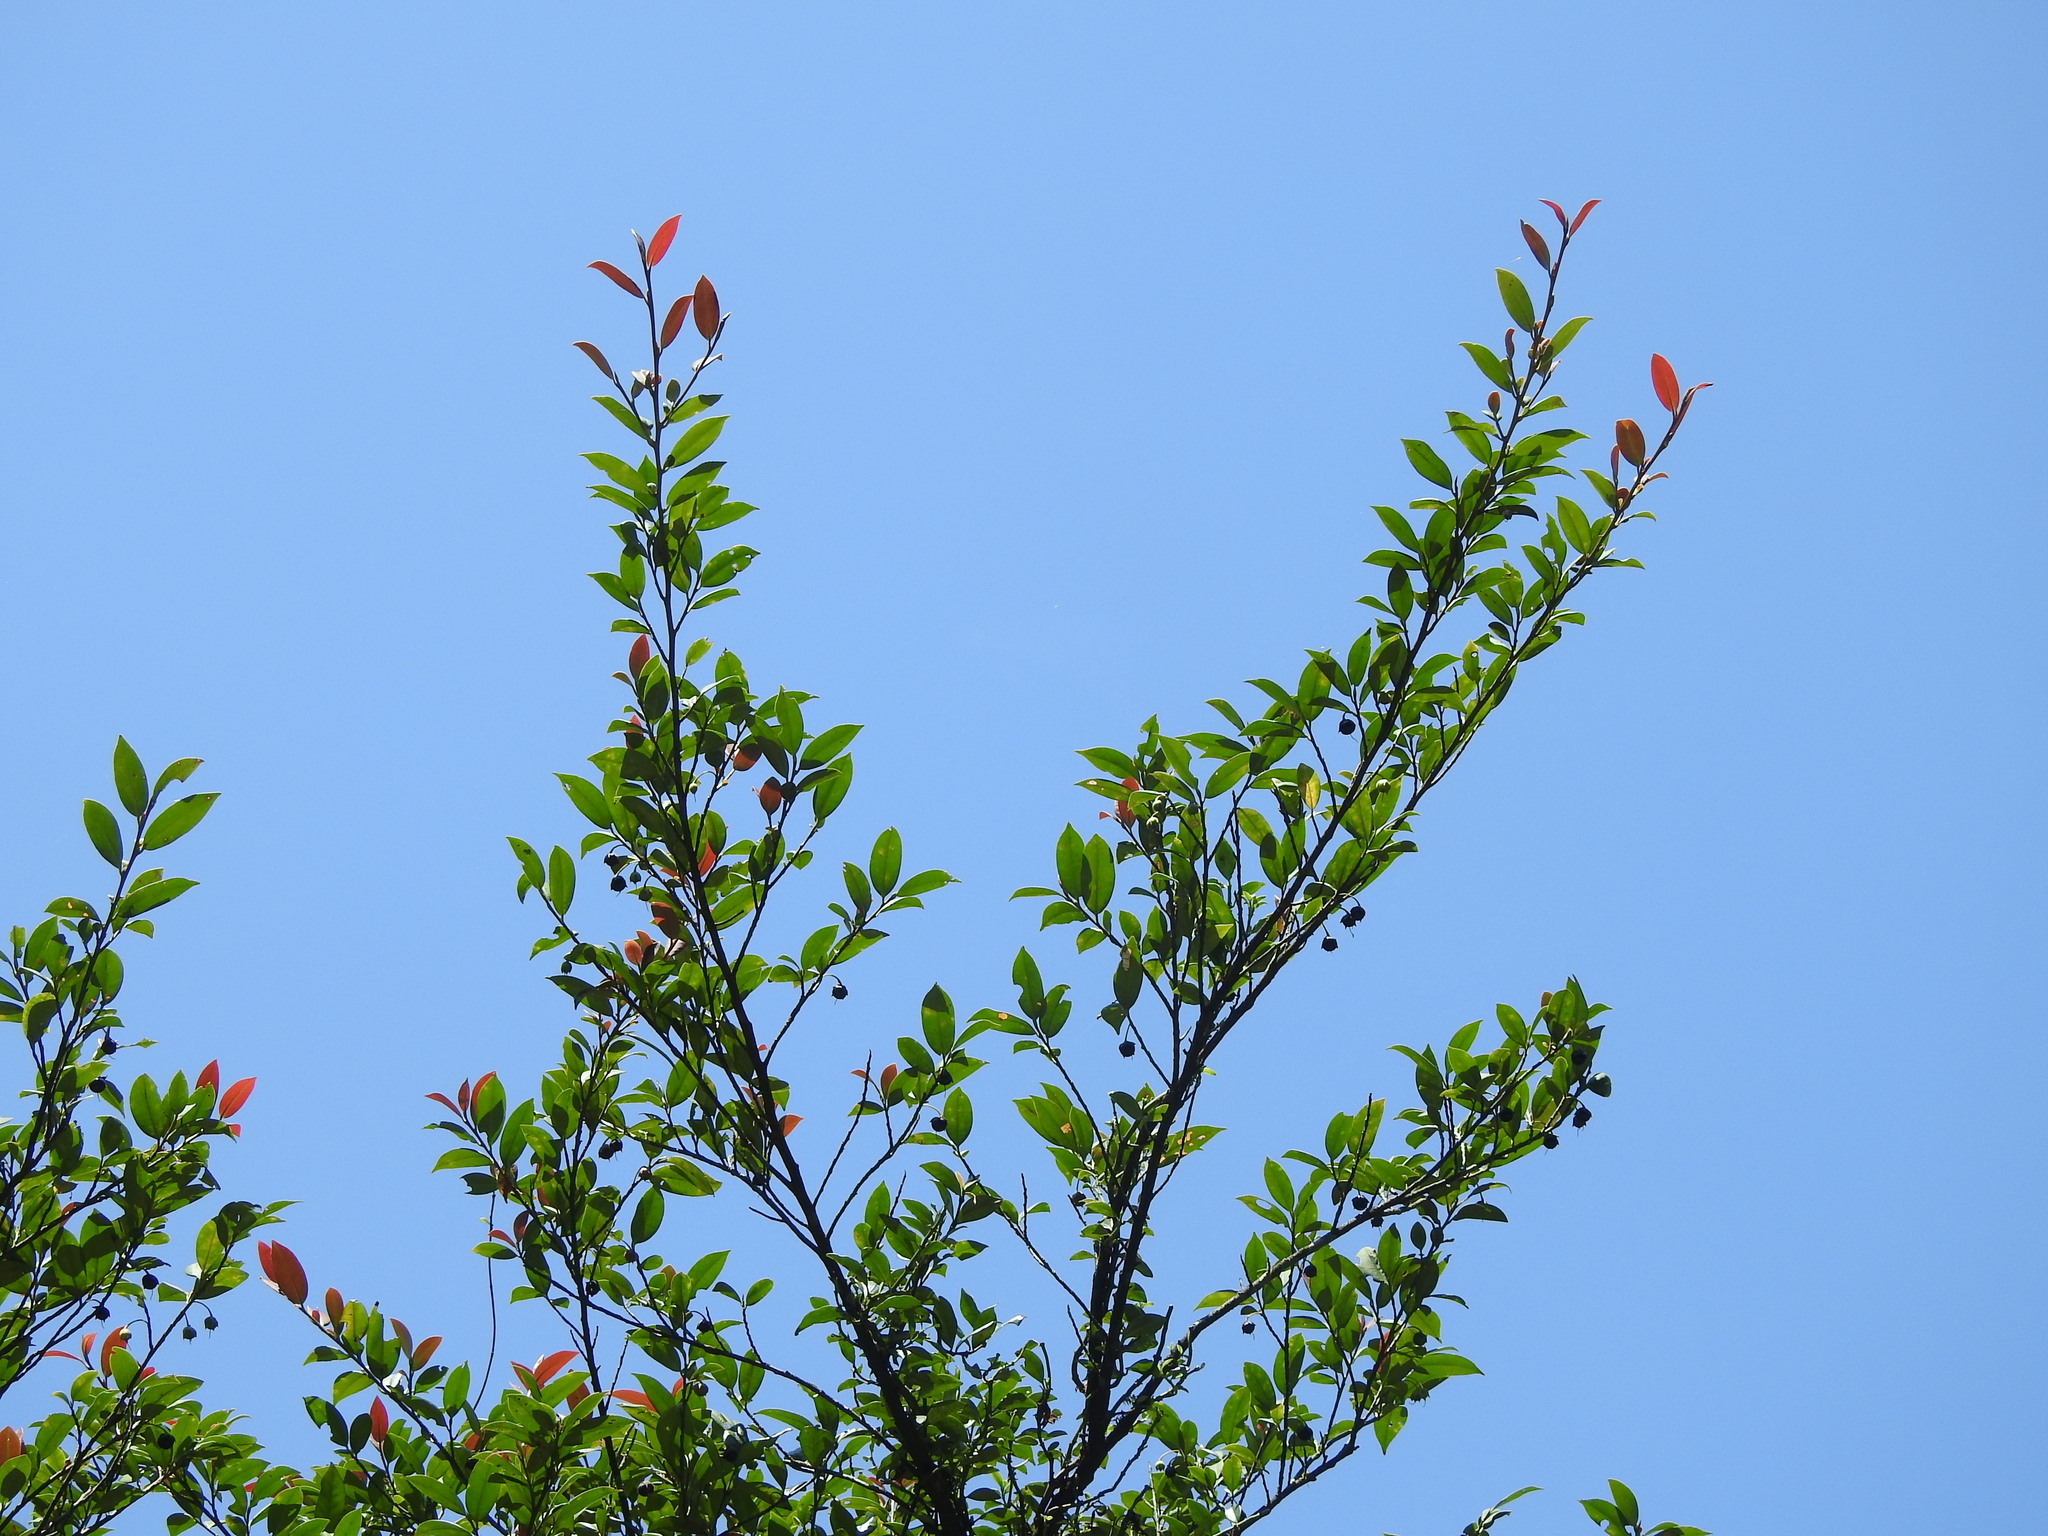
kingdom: Plantae
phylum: Tracheophyta
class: Magnoliopsida
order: Ericales
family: Pentaphylacaceae
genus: Adinandra
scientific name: Adinandra formosana
